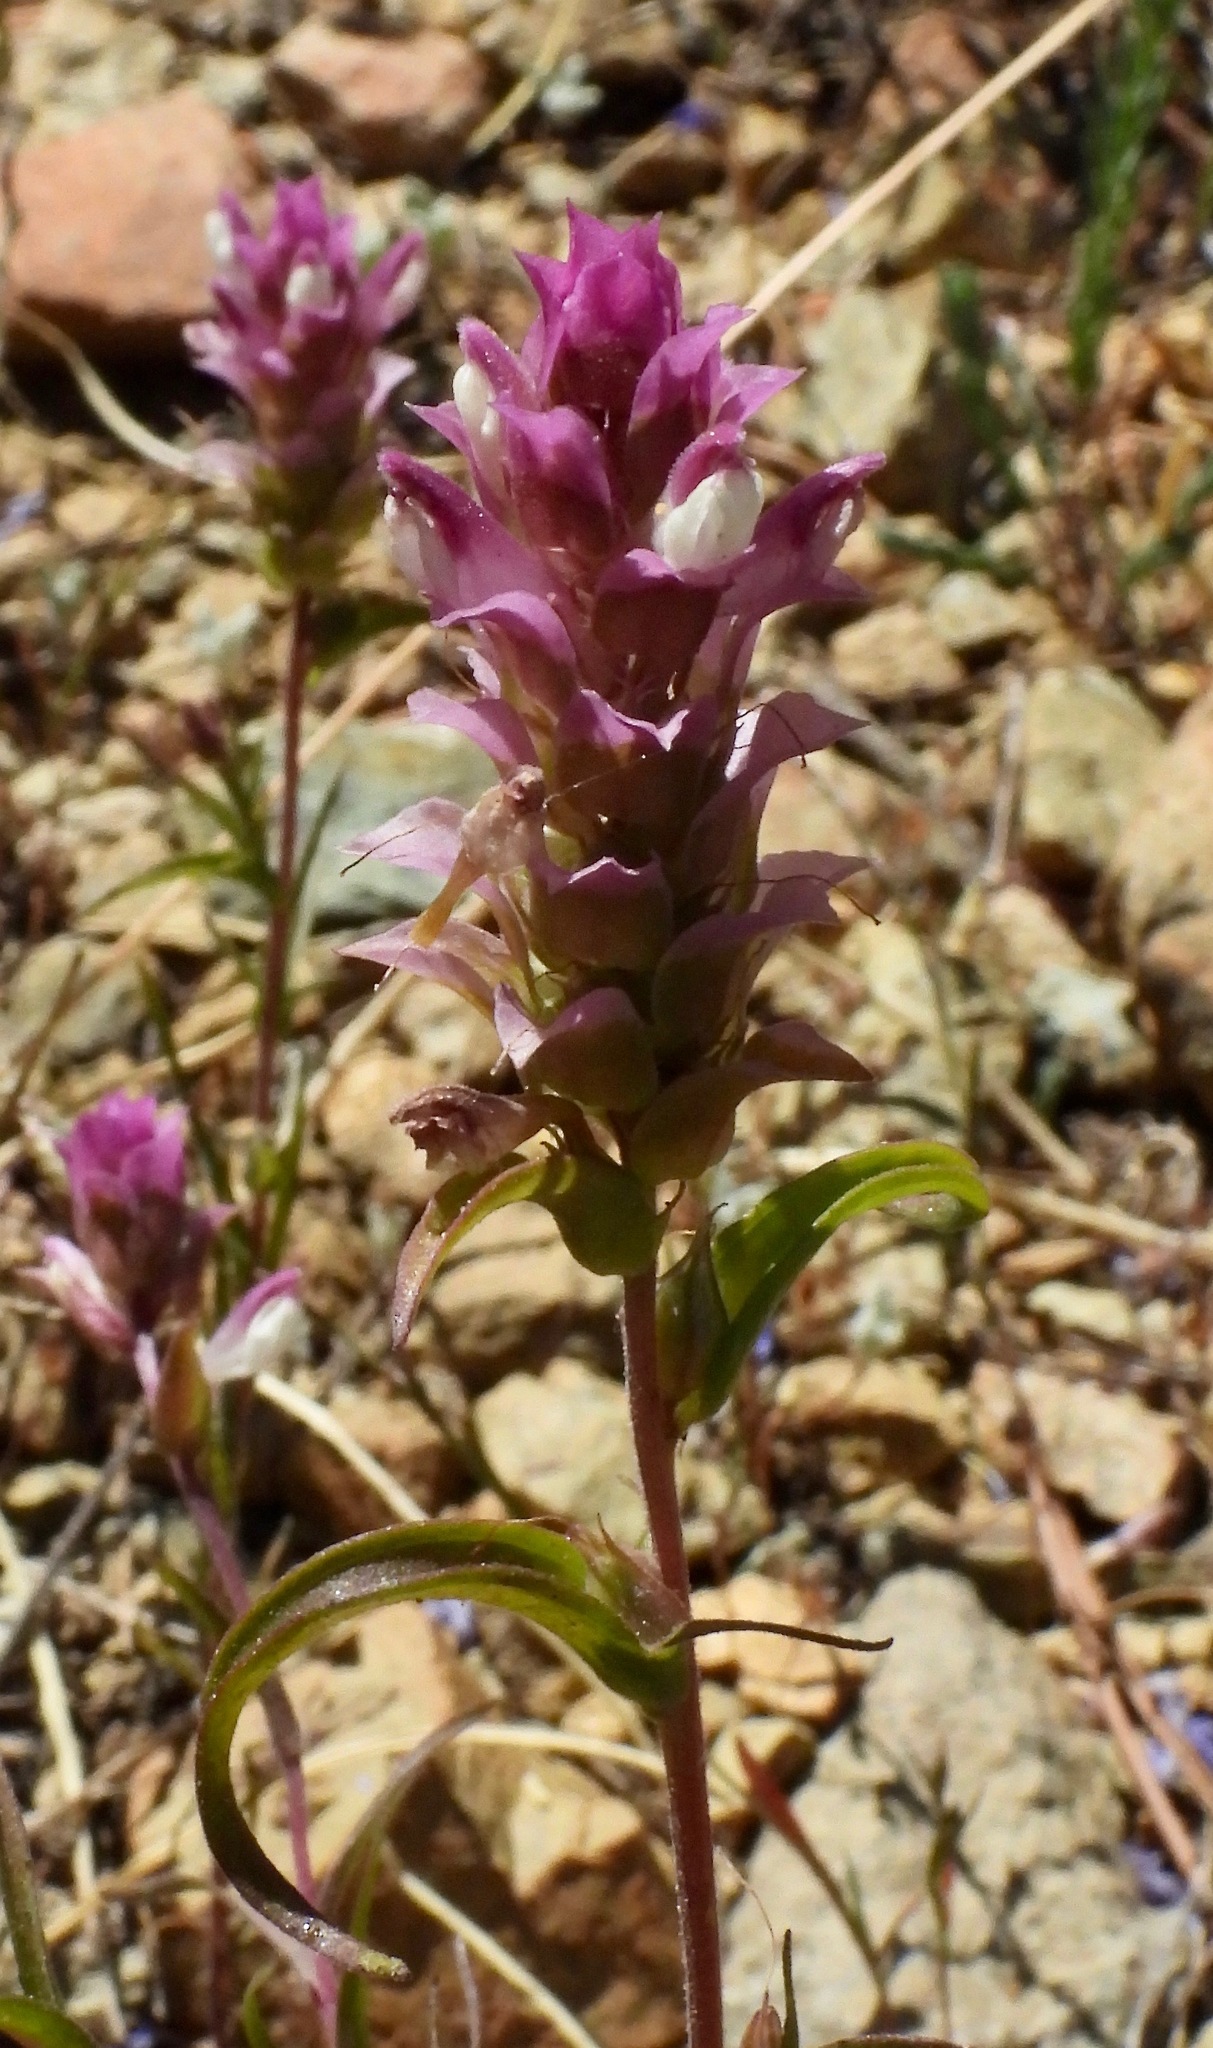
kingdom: Plantae
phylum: Tracheophyta
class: Magnoliopsida
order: Lamiales
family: Orobanchaceae
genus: Orthocarpus
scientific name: Orthocarpus cuspidatus
